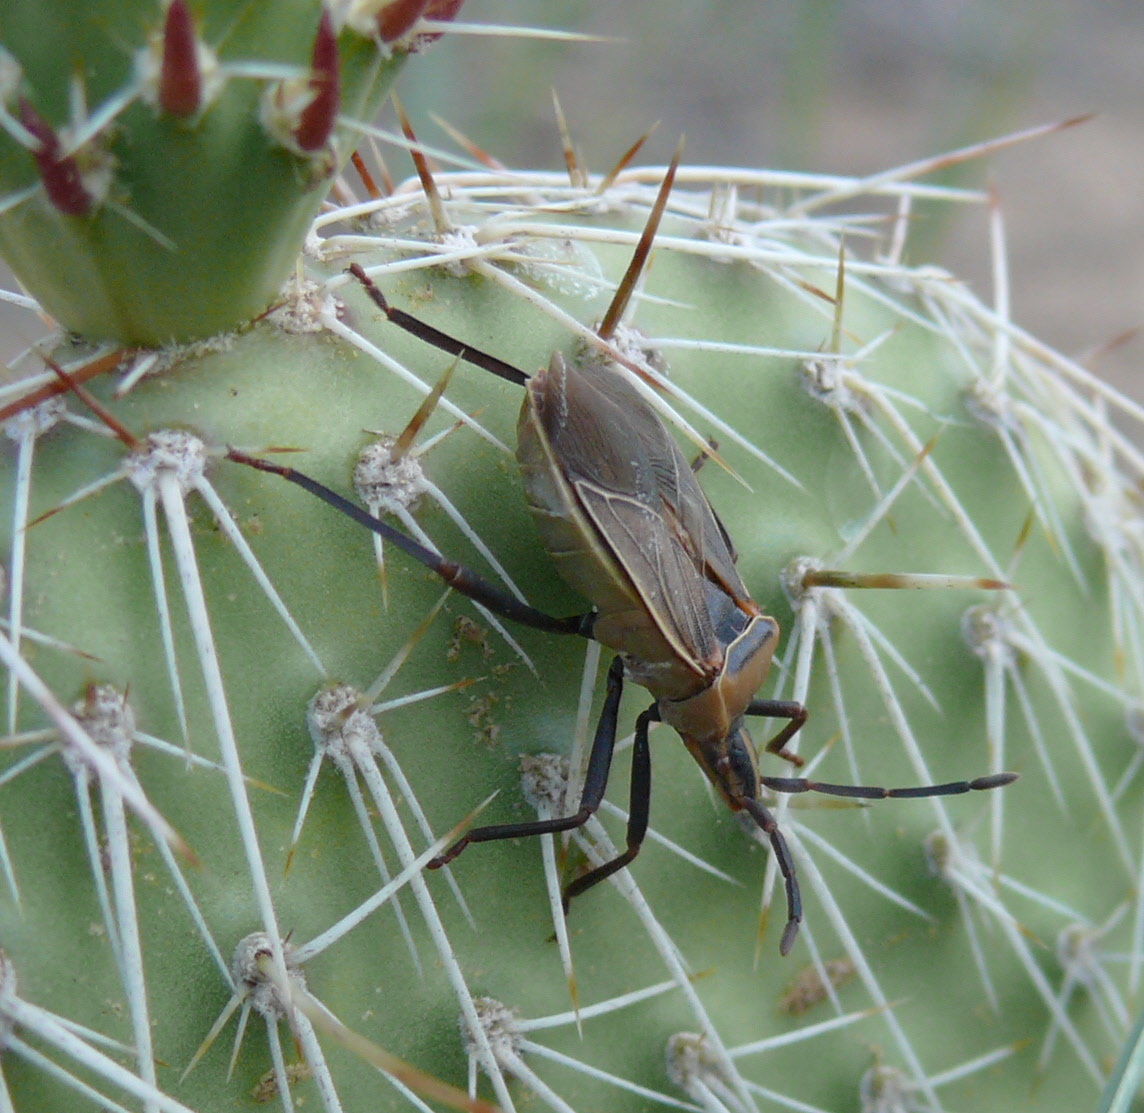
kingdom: Animalia
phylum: Arthropoda
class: Insecta
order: Hemiptera
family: Coreidae
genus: Chelinidea
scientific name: Chelinidea vittiger
